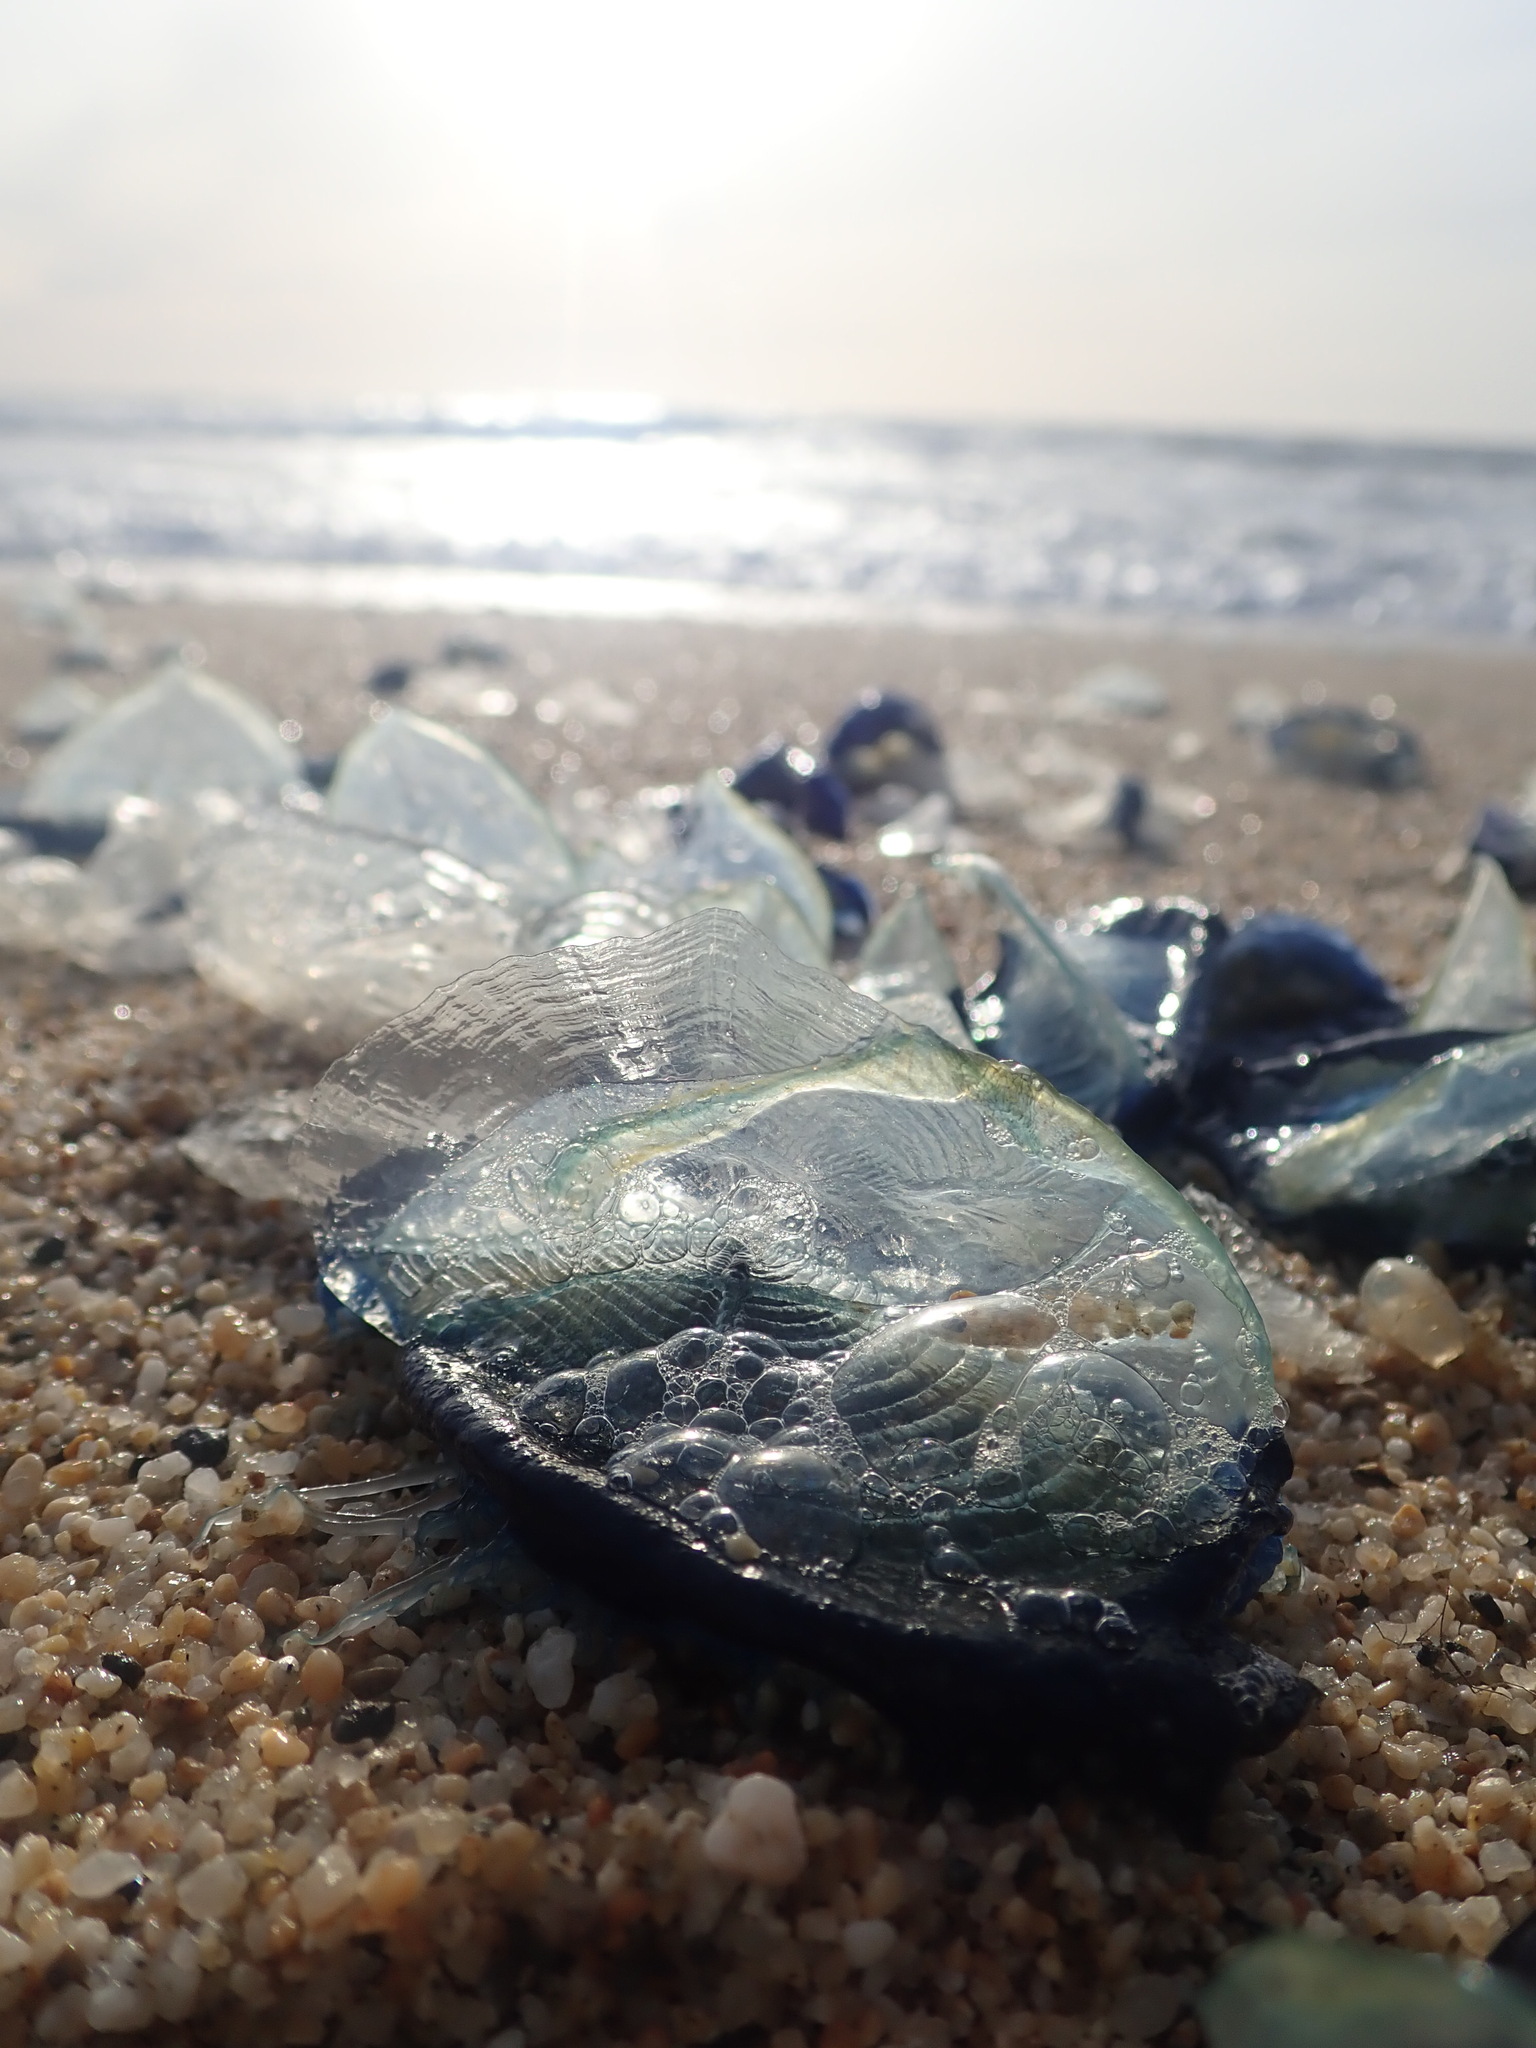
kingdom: Animalia
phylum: Cnidaria
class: Hydrozoa
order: Anthoathecata
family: Porpitidae
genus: Velella
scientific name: Velella velella
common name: By-the-wind-sailor
